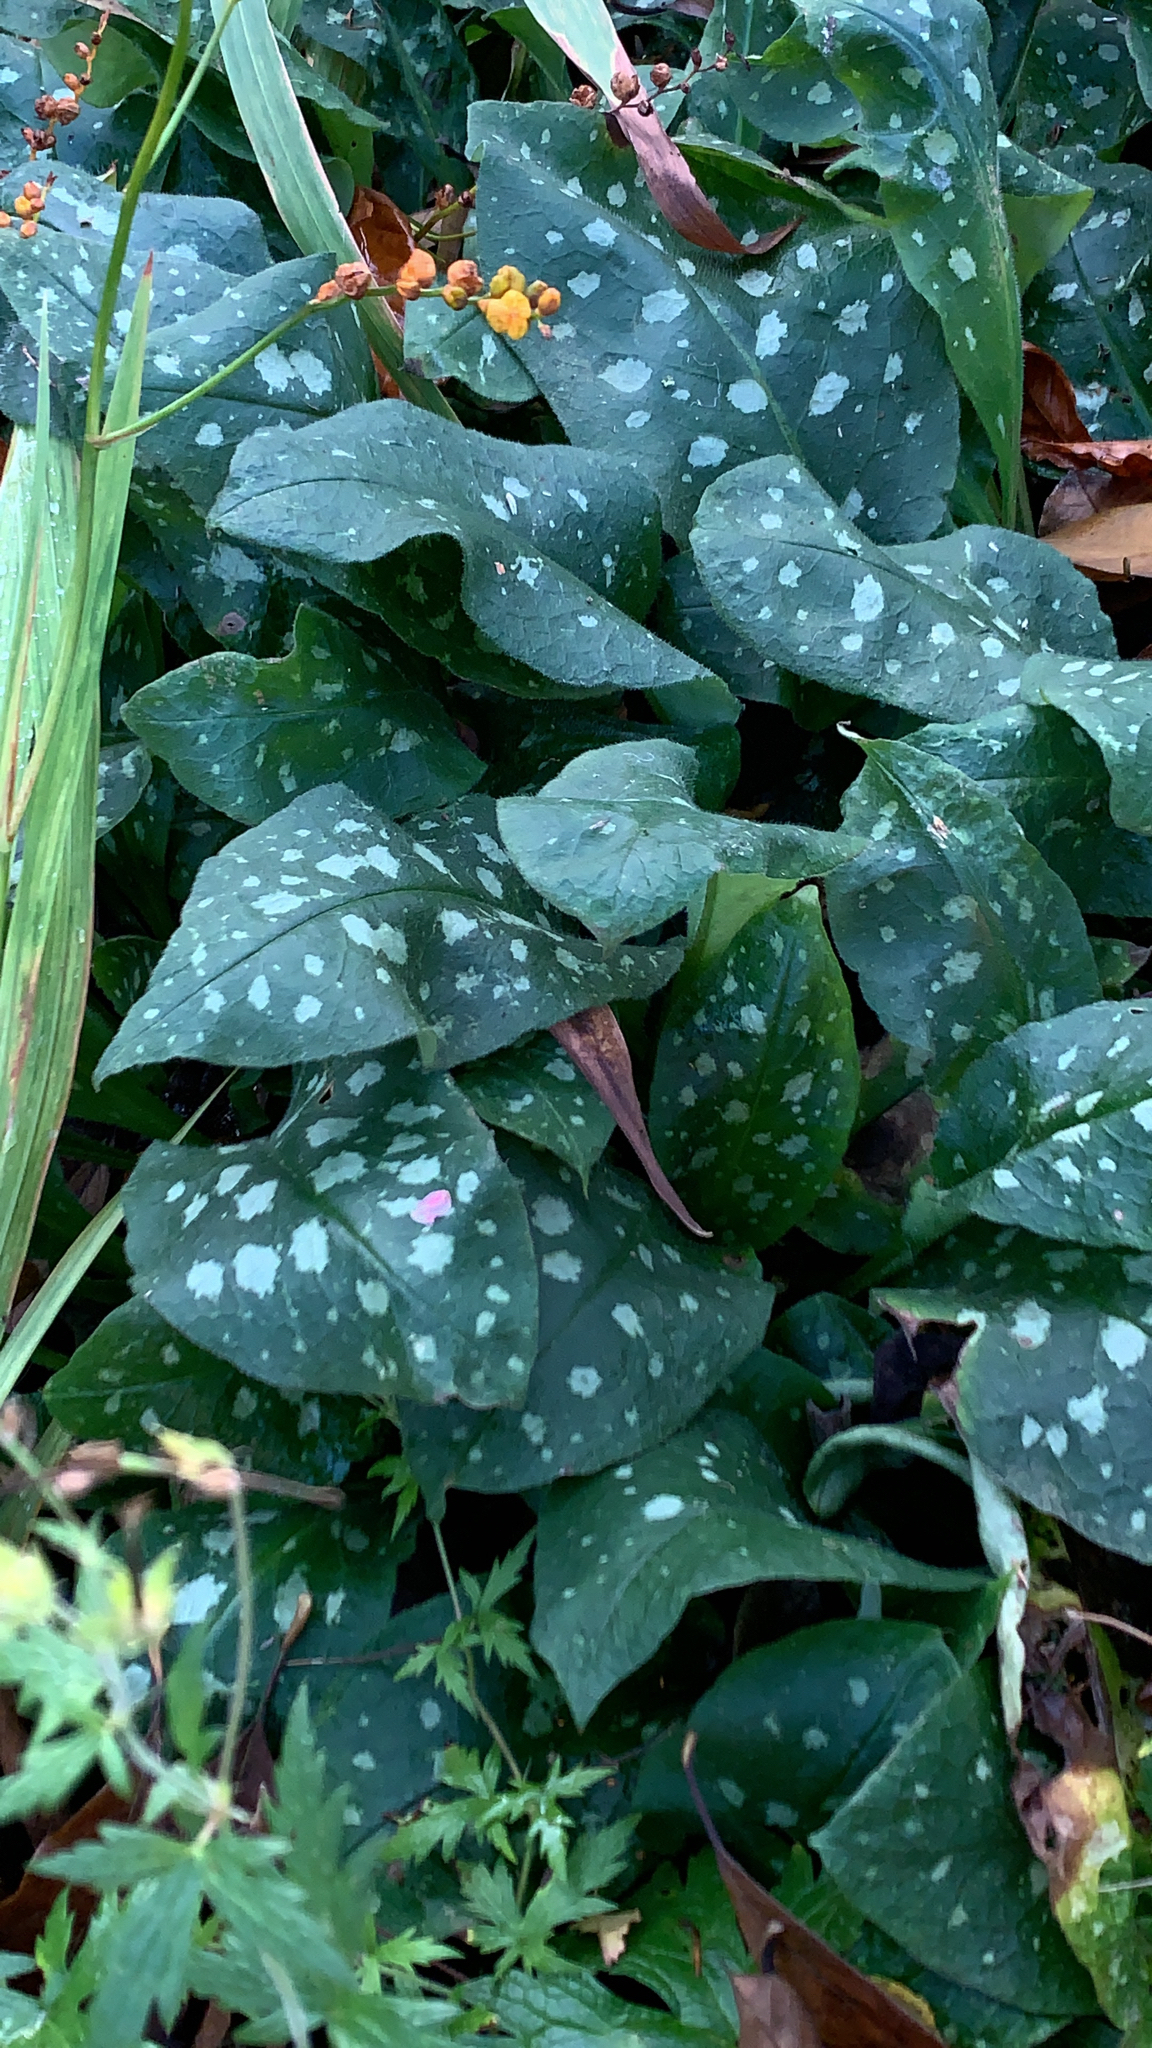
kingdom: Plantae
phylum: Tracheophyta
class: Magnoliopsida
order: Boraginales
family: Boraginaceae
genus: Pulmonaria
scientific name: Pulmonaria officinalis
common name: Lungwort
